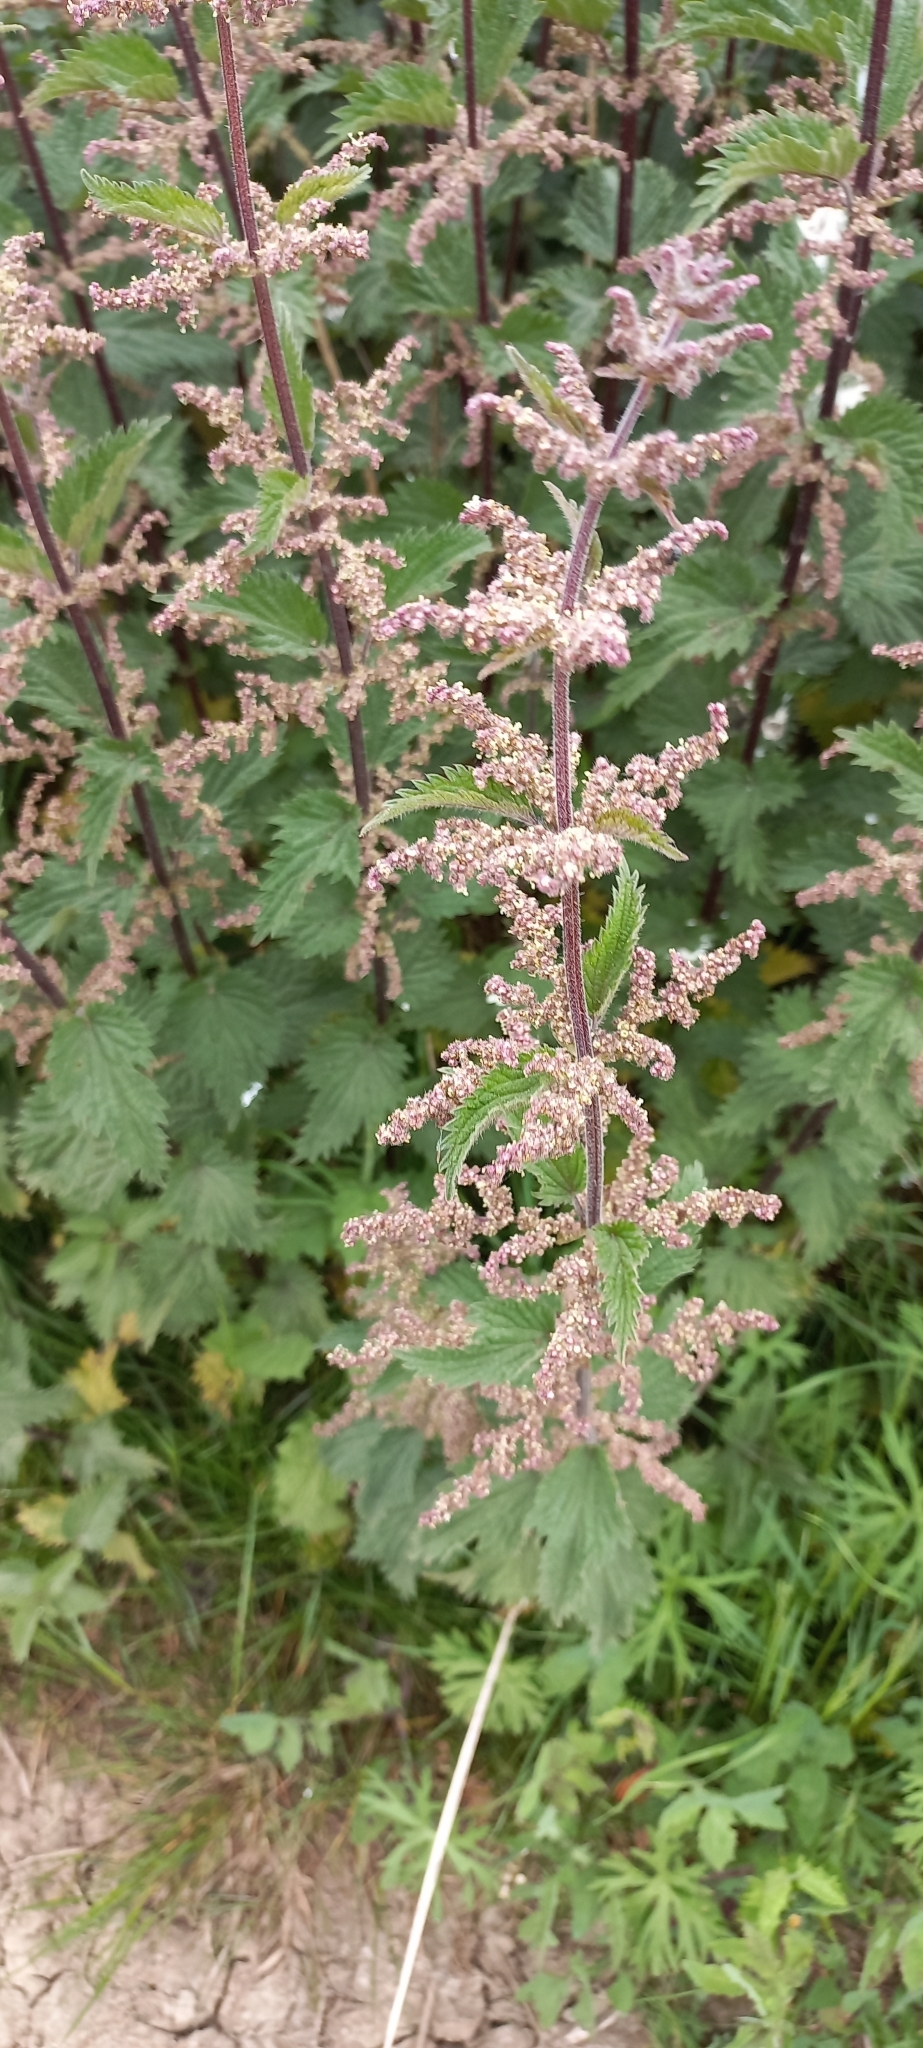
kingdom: Plantae
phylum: Tracheophyta
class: Magnoliopsida
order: Rosales
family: Urticaceae
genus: Urtica
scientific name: Urtica dioica
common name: Common nettle
